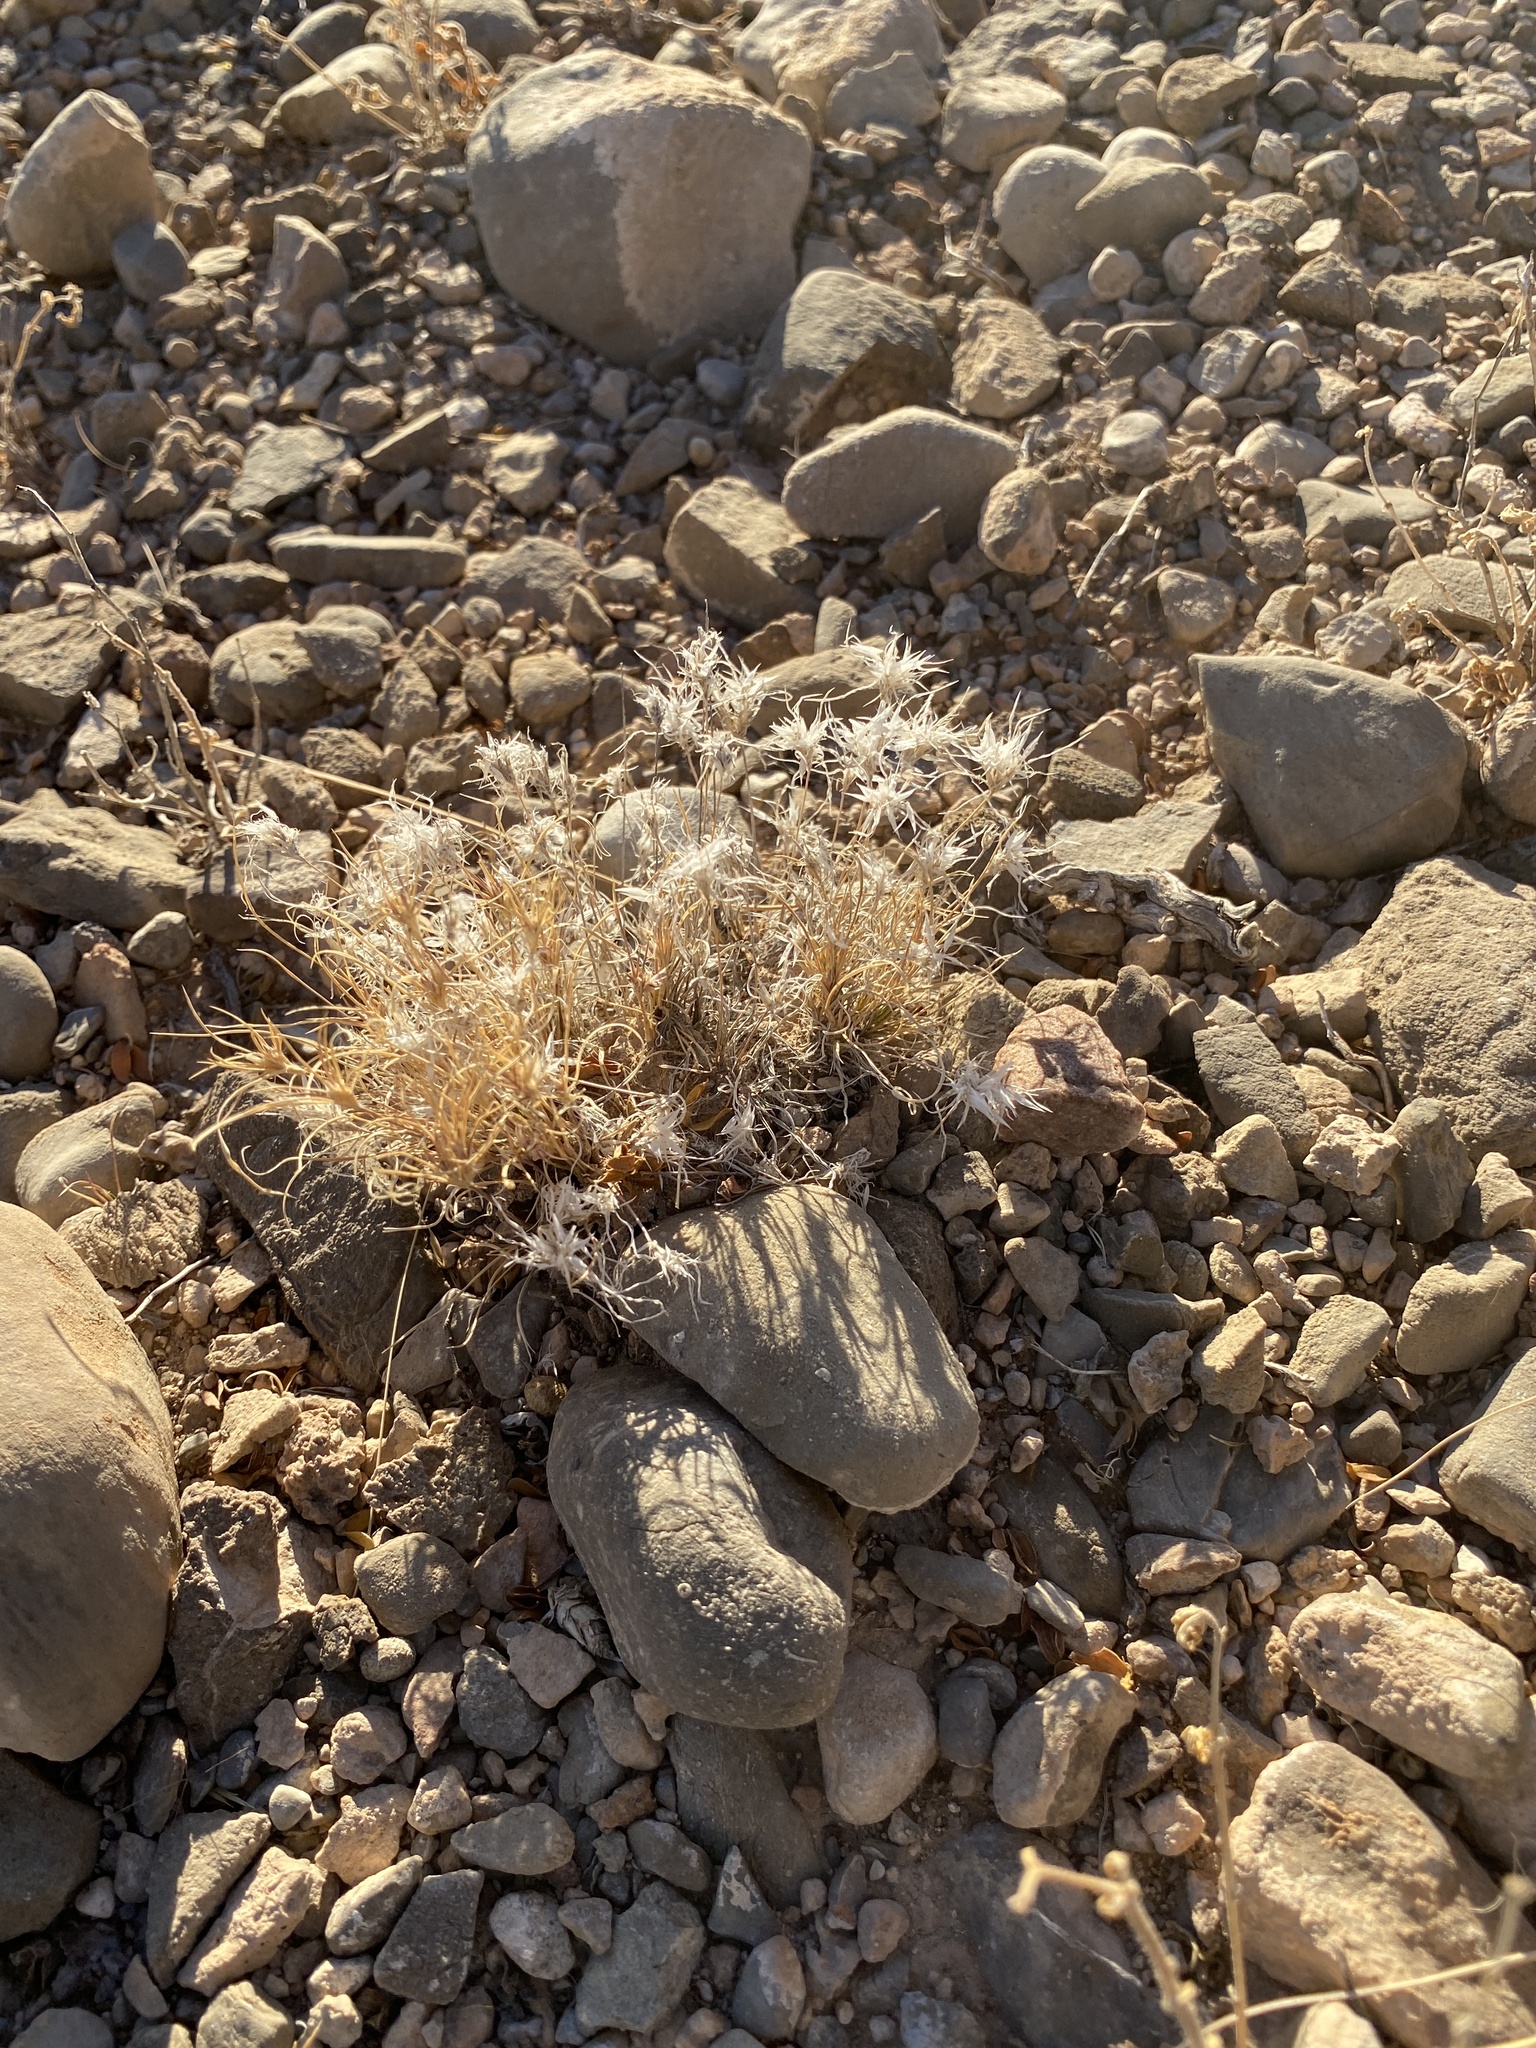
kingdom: Plantae
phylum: Tracheophyta
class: Liliopsida
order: Poales
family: Poaceae
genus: Dasyochloa
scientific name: Dasyochloa pulchella
